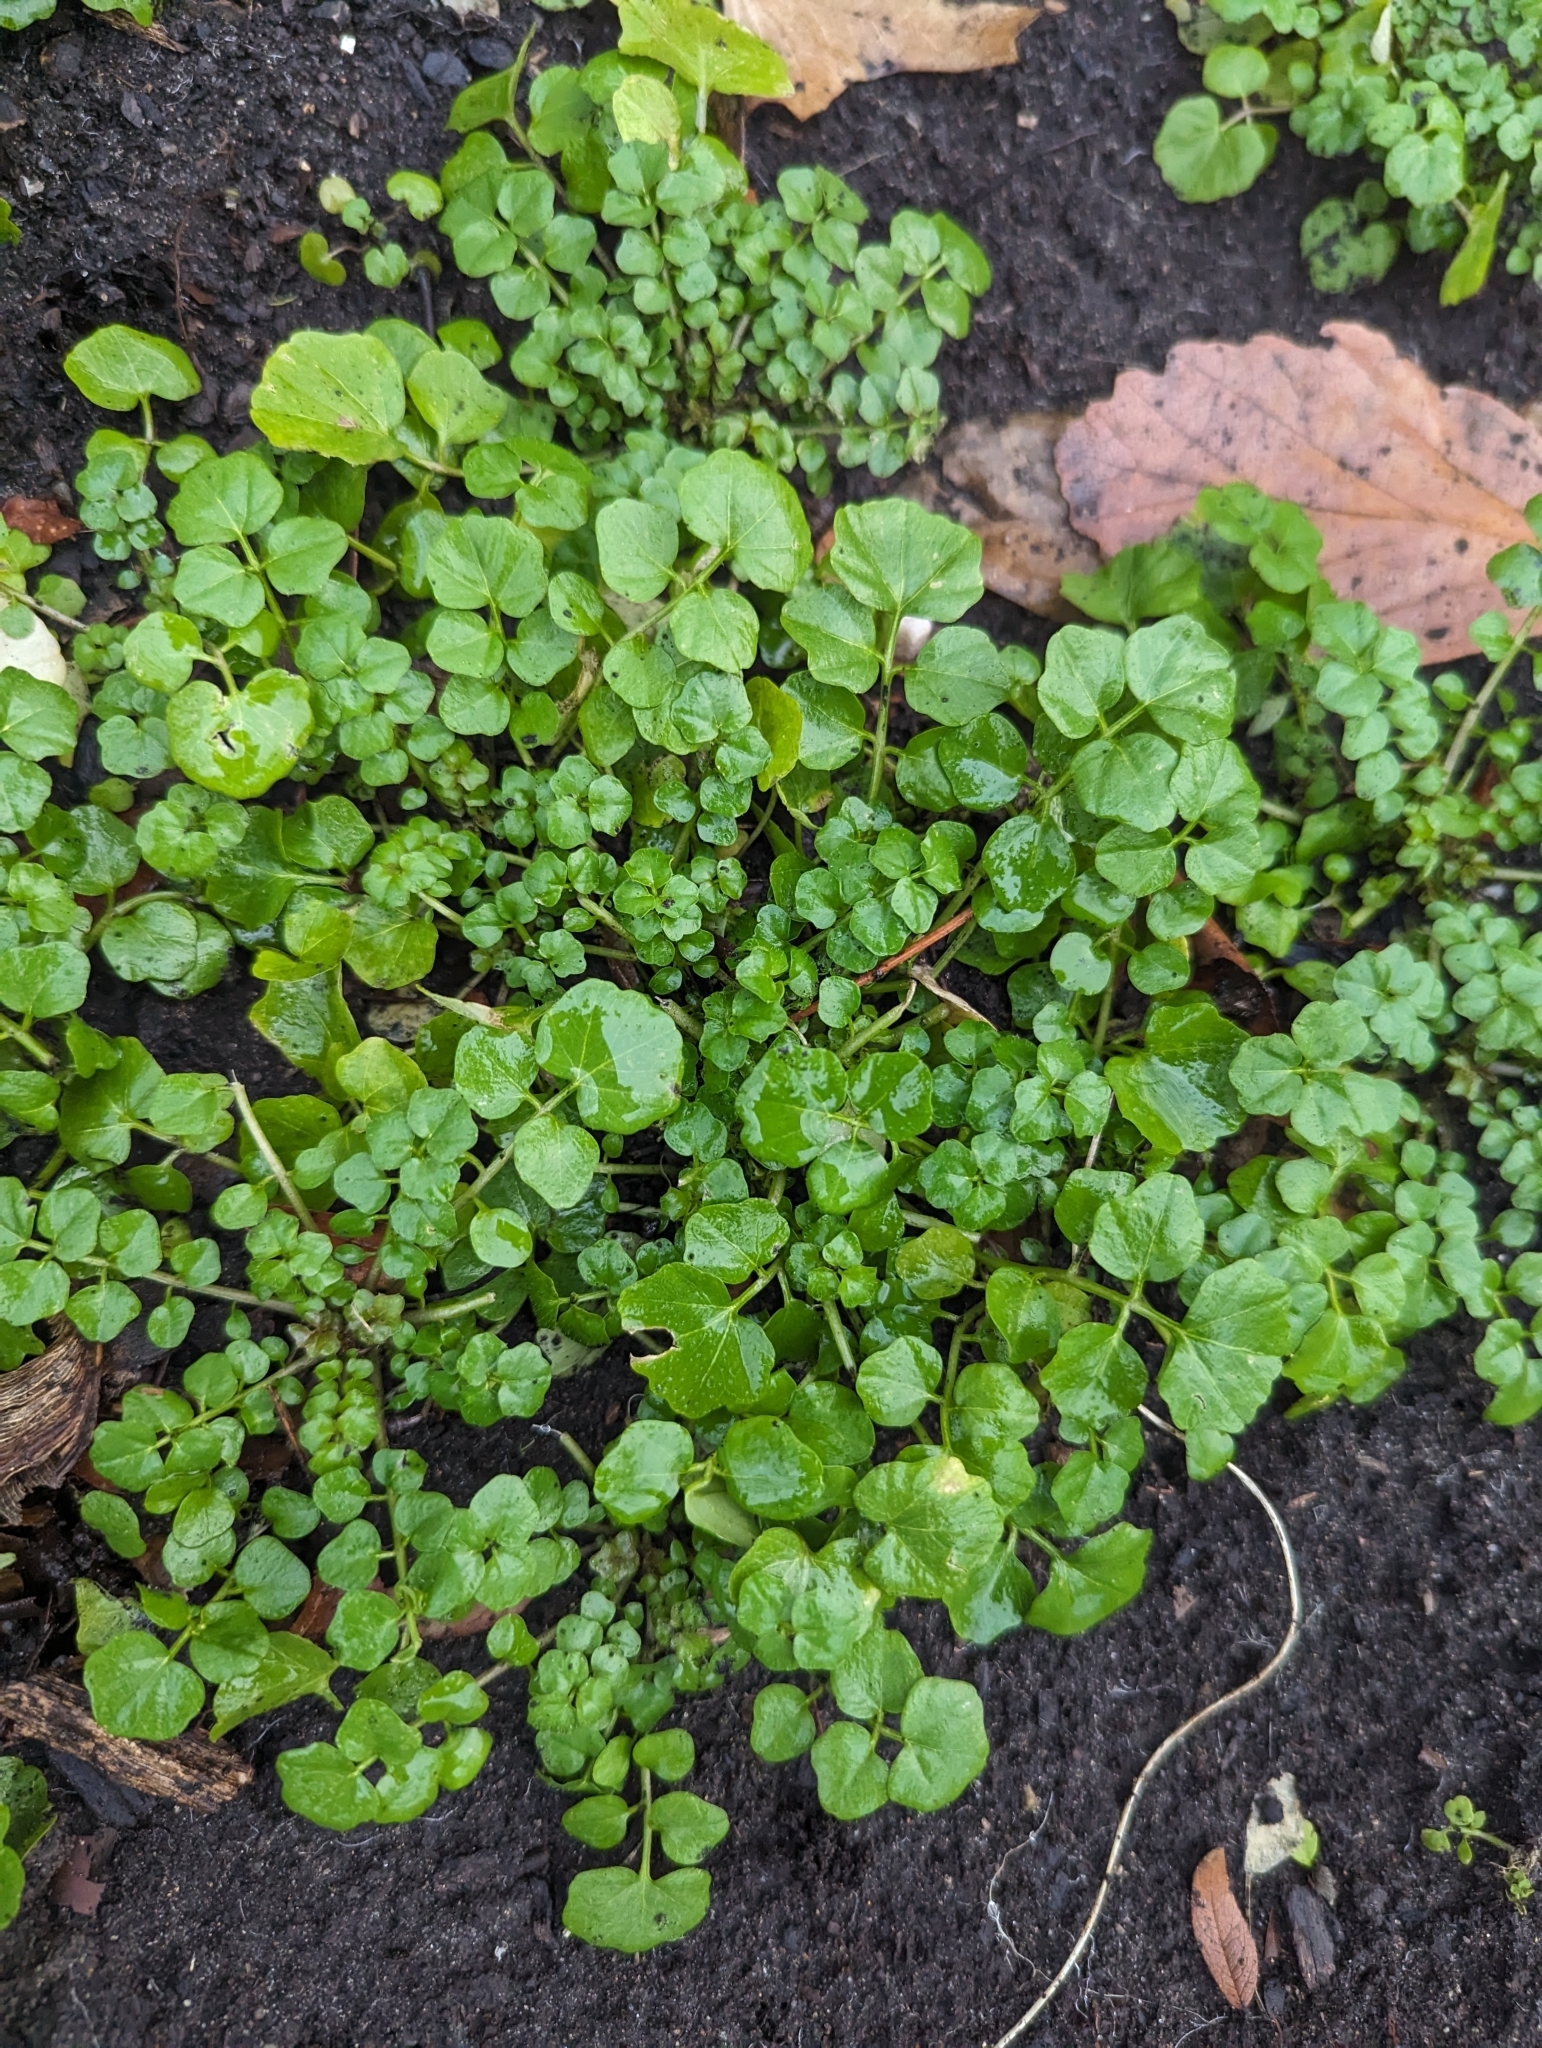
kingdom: Plantae
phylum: Tracheophyta
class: Magnoliopsida
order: Brassicales
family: Brassicaceae
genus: Cardamine
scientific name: Cardamine hirsuta
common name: Hairy bittercress
